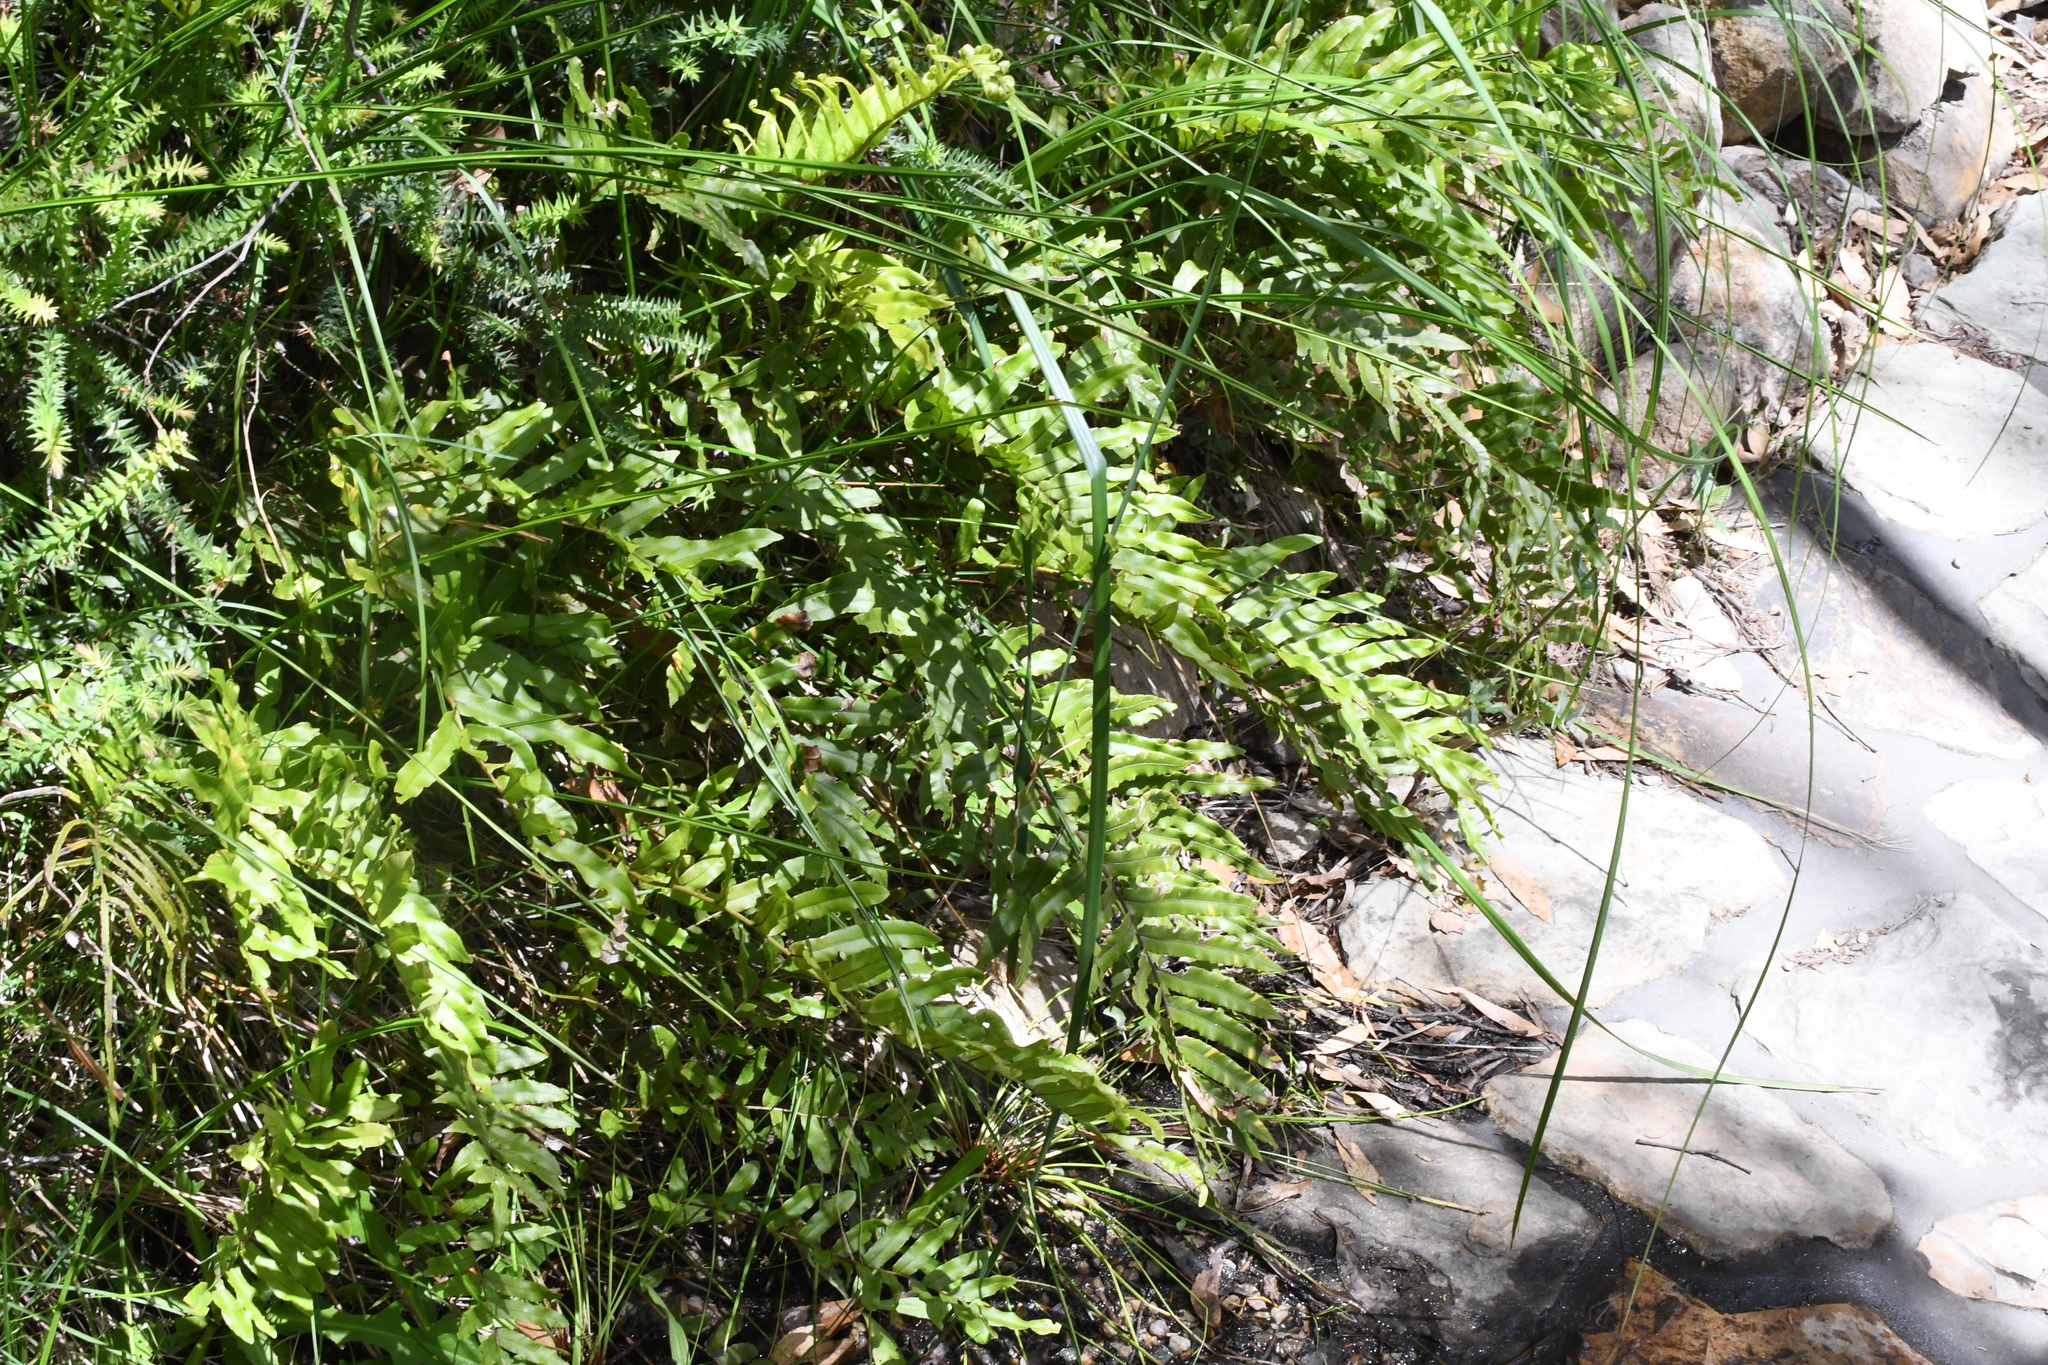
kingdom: Plantae
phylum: Tracheophyta
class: Polypodiopsida
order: Polypodiales
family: Blechnaceae
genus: Parablechnum
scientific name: Parablechnum minus
